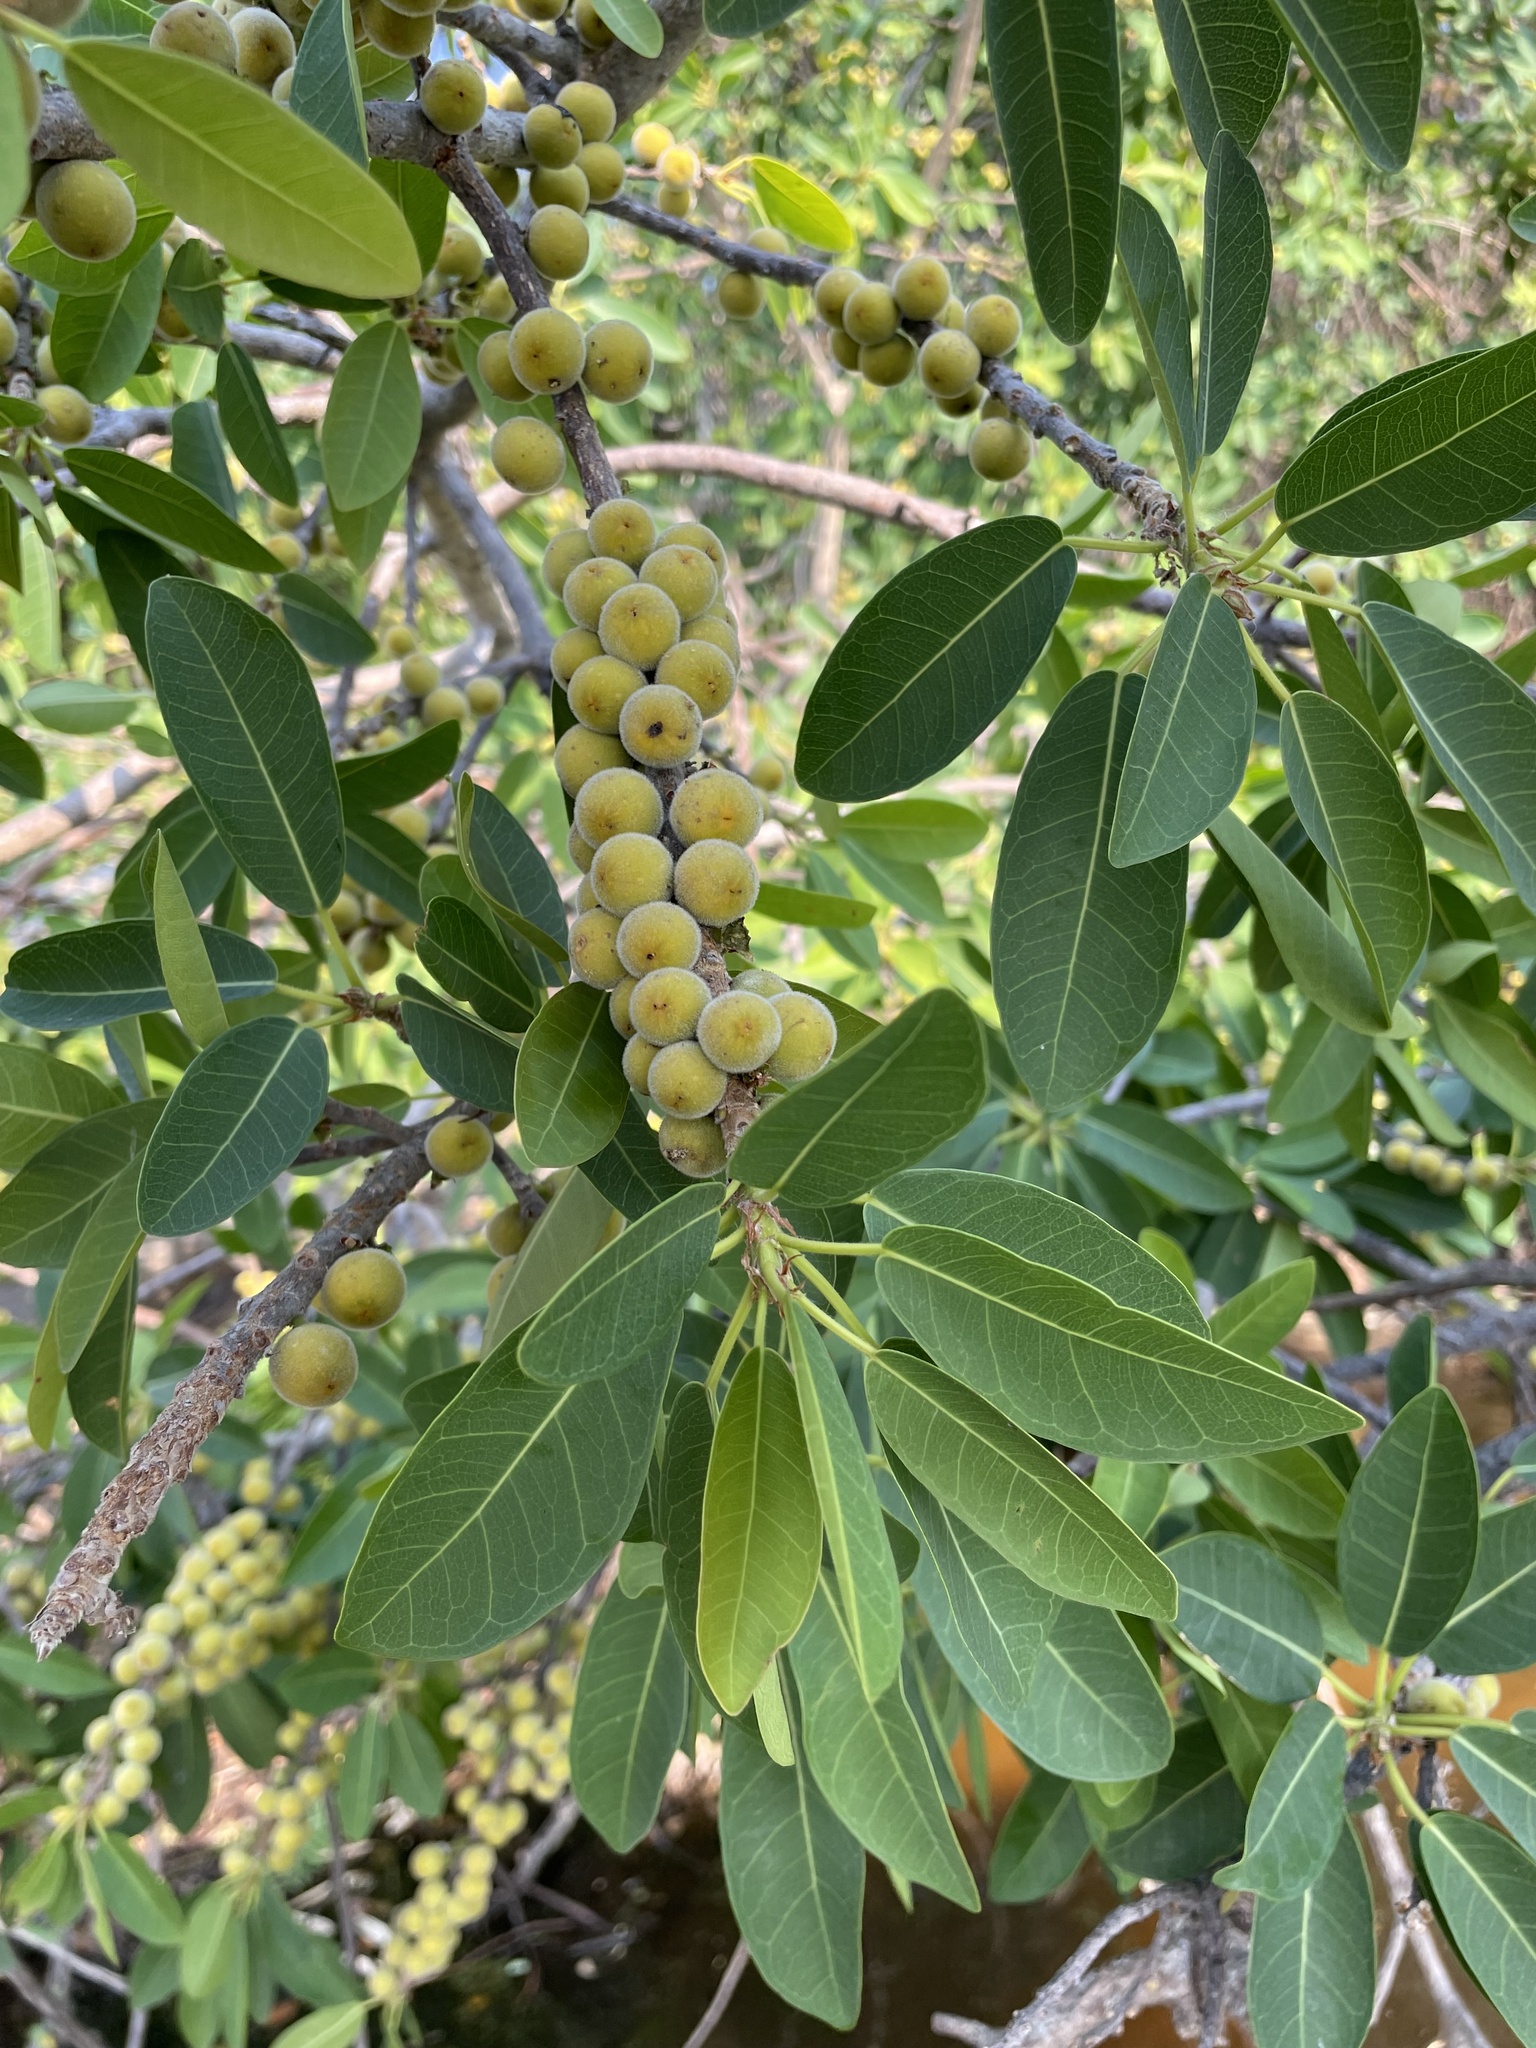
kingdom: Plantae
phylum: Tracheophyta
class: Magnoliopsida
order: Rosales
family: Moraceae
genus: Ficus
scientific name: Ficus thonningii
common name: Fig
